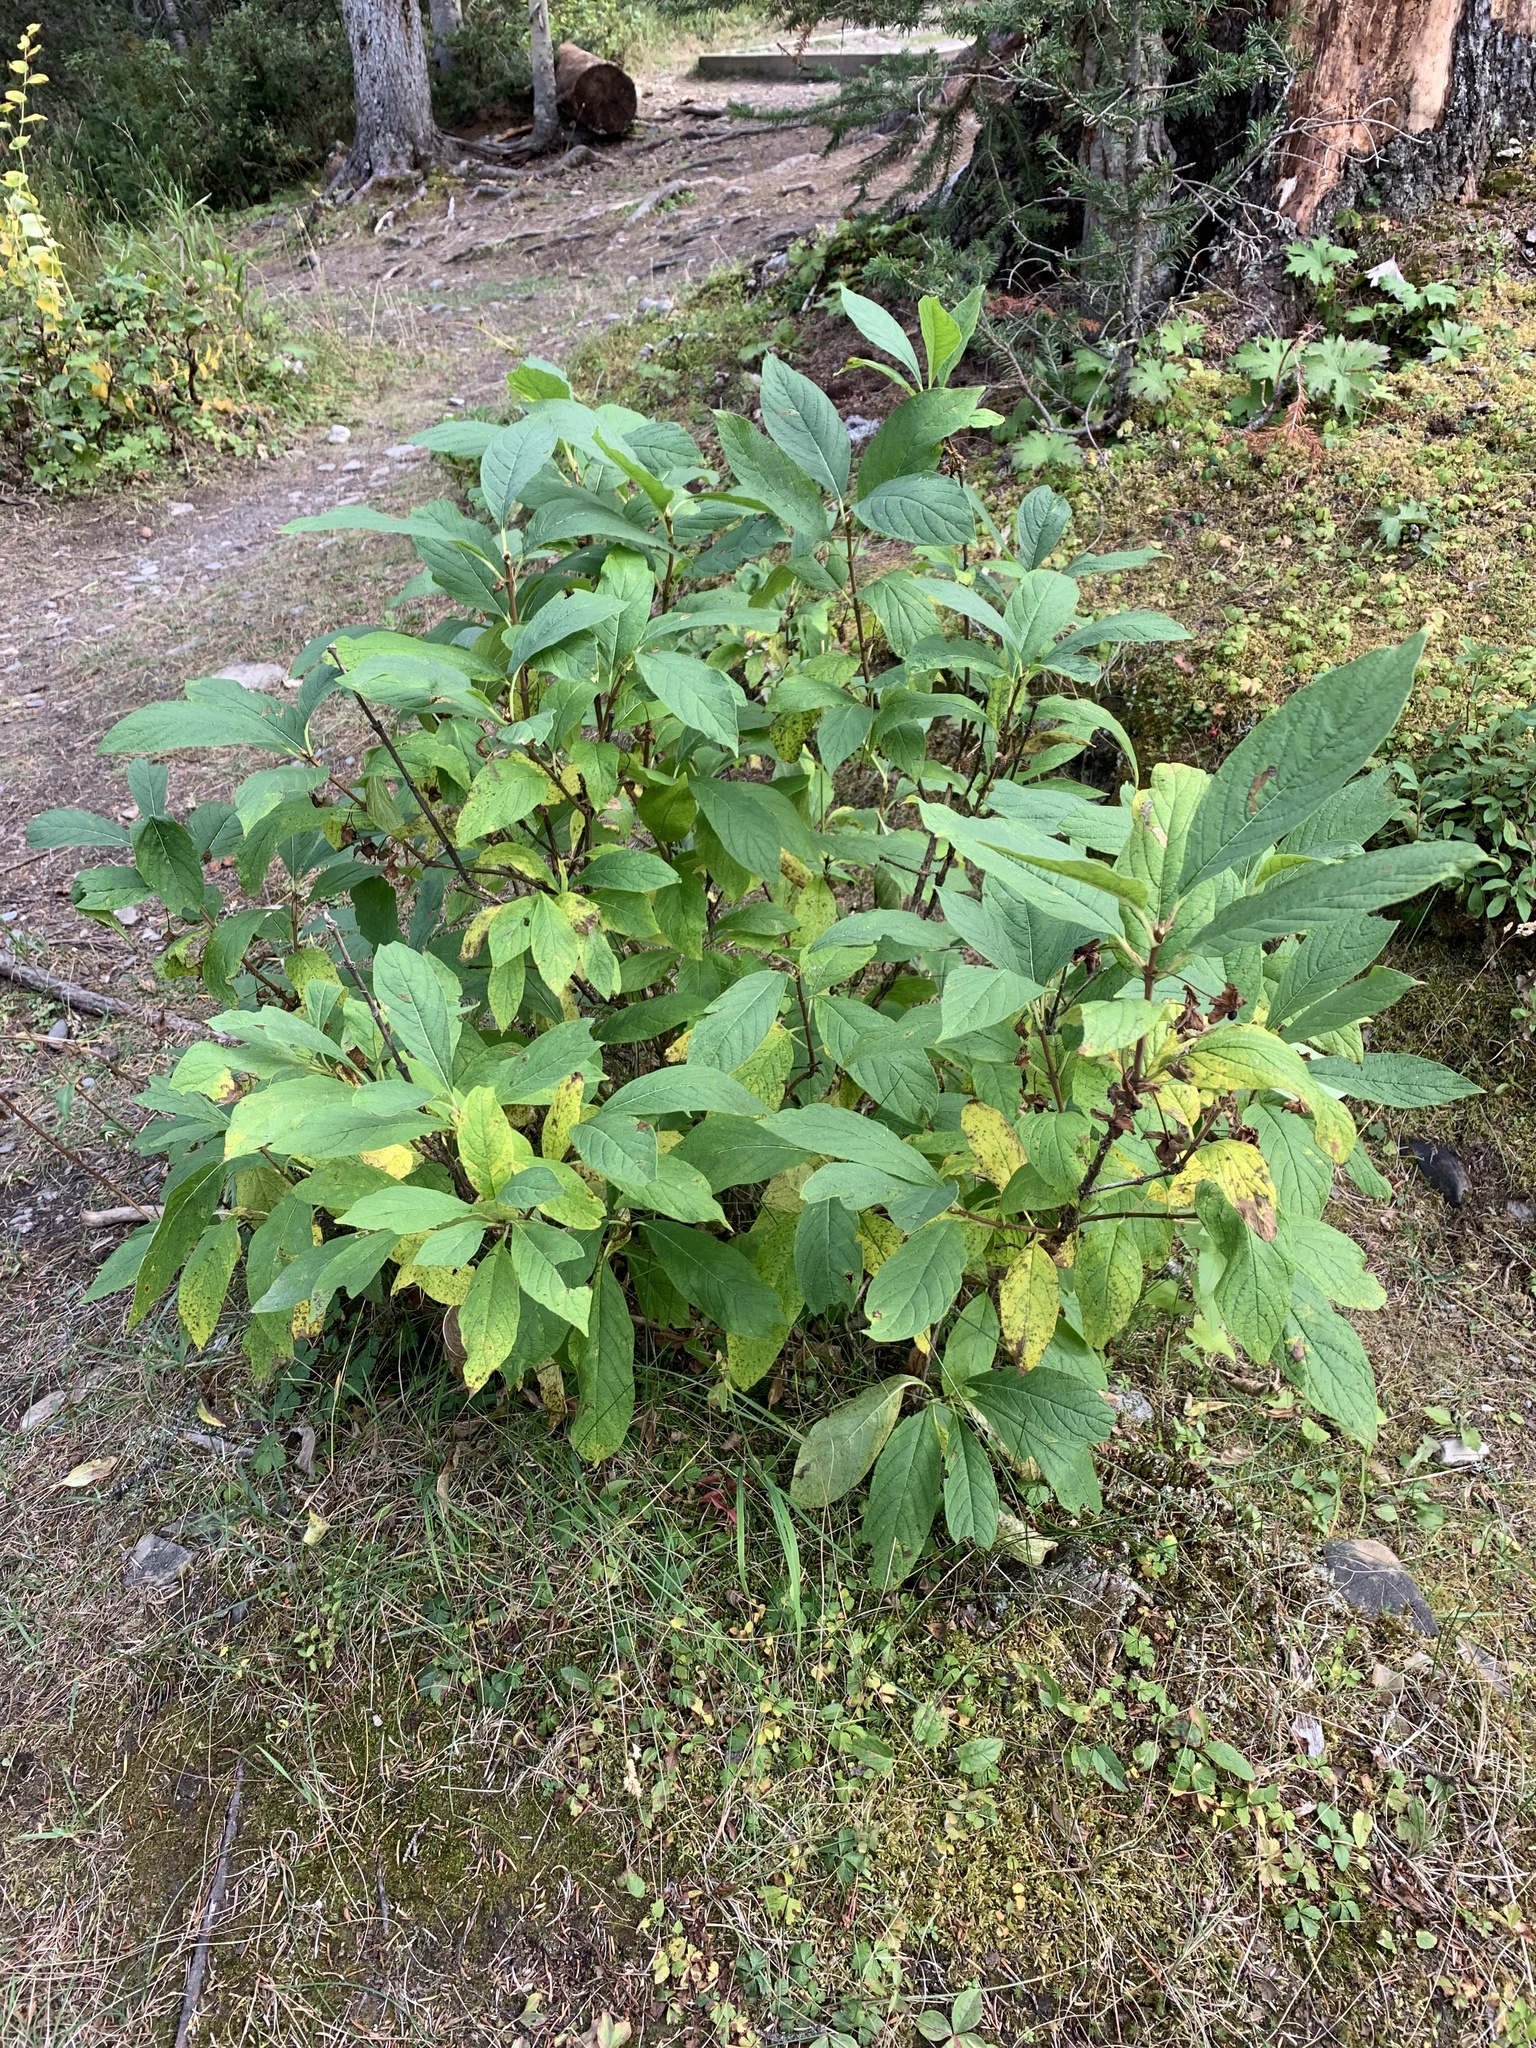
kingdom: Plantae
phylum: Tracheophyta
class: Magnoliopsida
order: Dipsacales
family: Caprifoliaceae
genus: Lonicera
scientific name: Lonicera involucrata
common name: Californian honeysuckle
